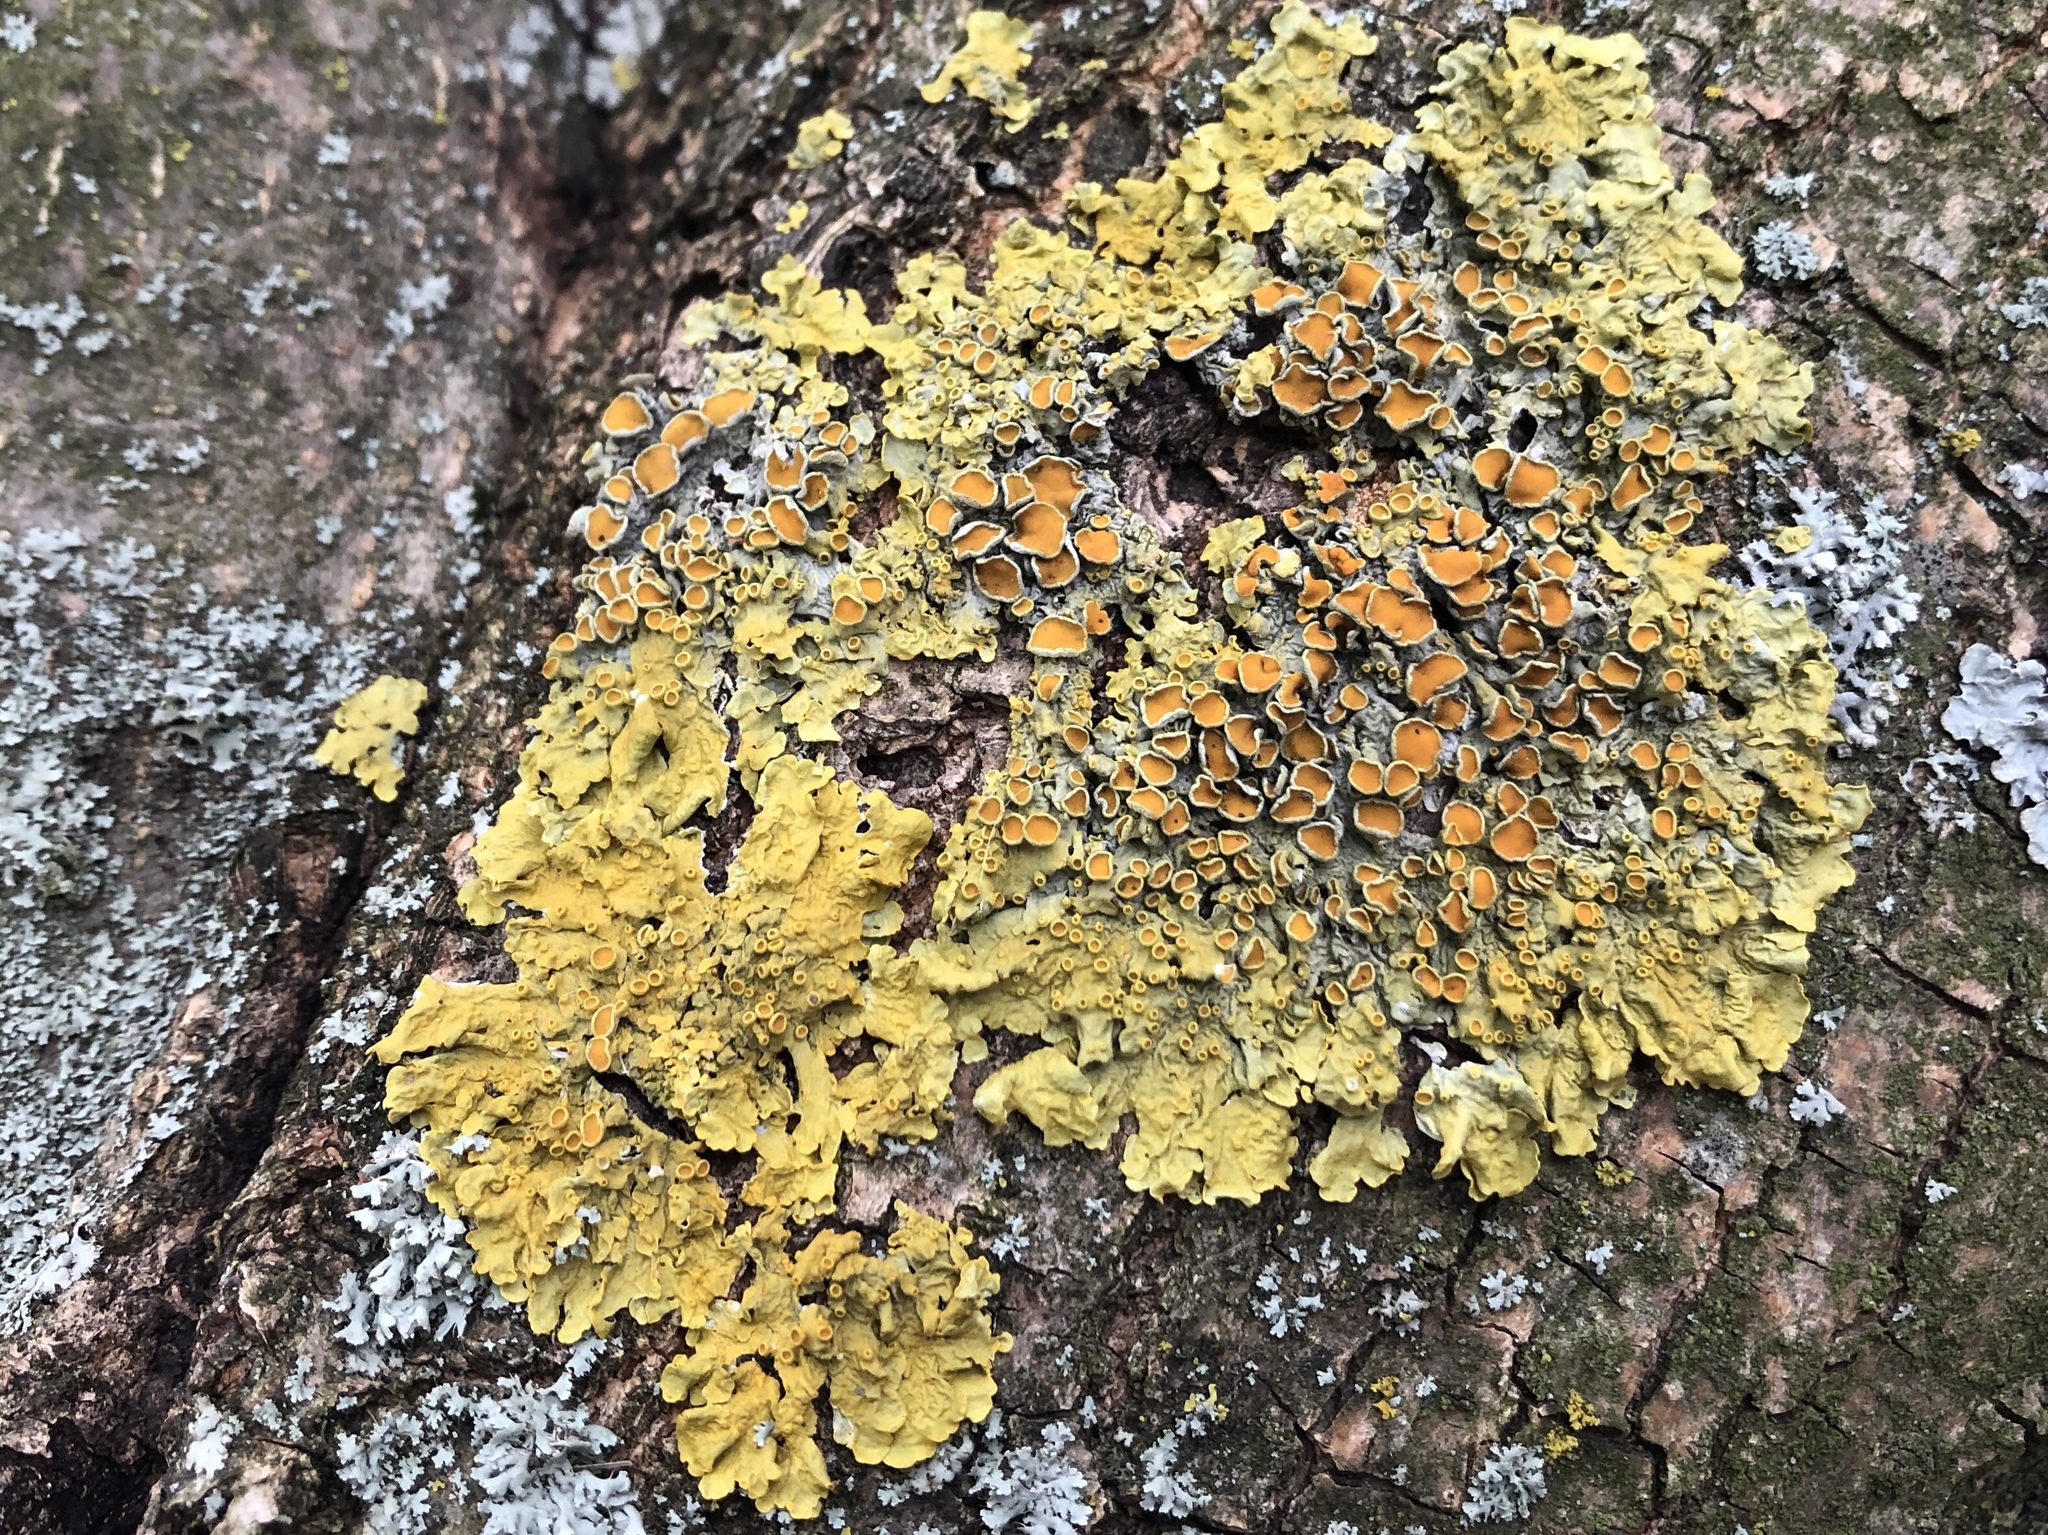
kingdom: Fungi
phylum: Ascomycota
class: Lecanoromycetes
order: Teloschistales
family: Teloschistaceae
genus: Xanthoria
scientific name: Xanthoria parietina
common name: Common orange lichen
